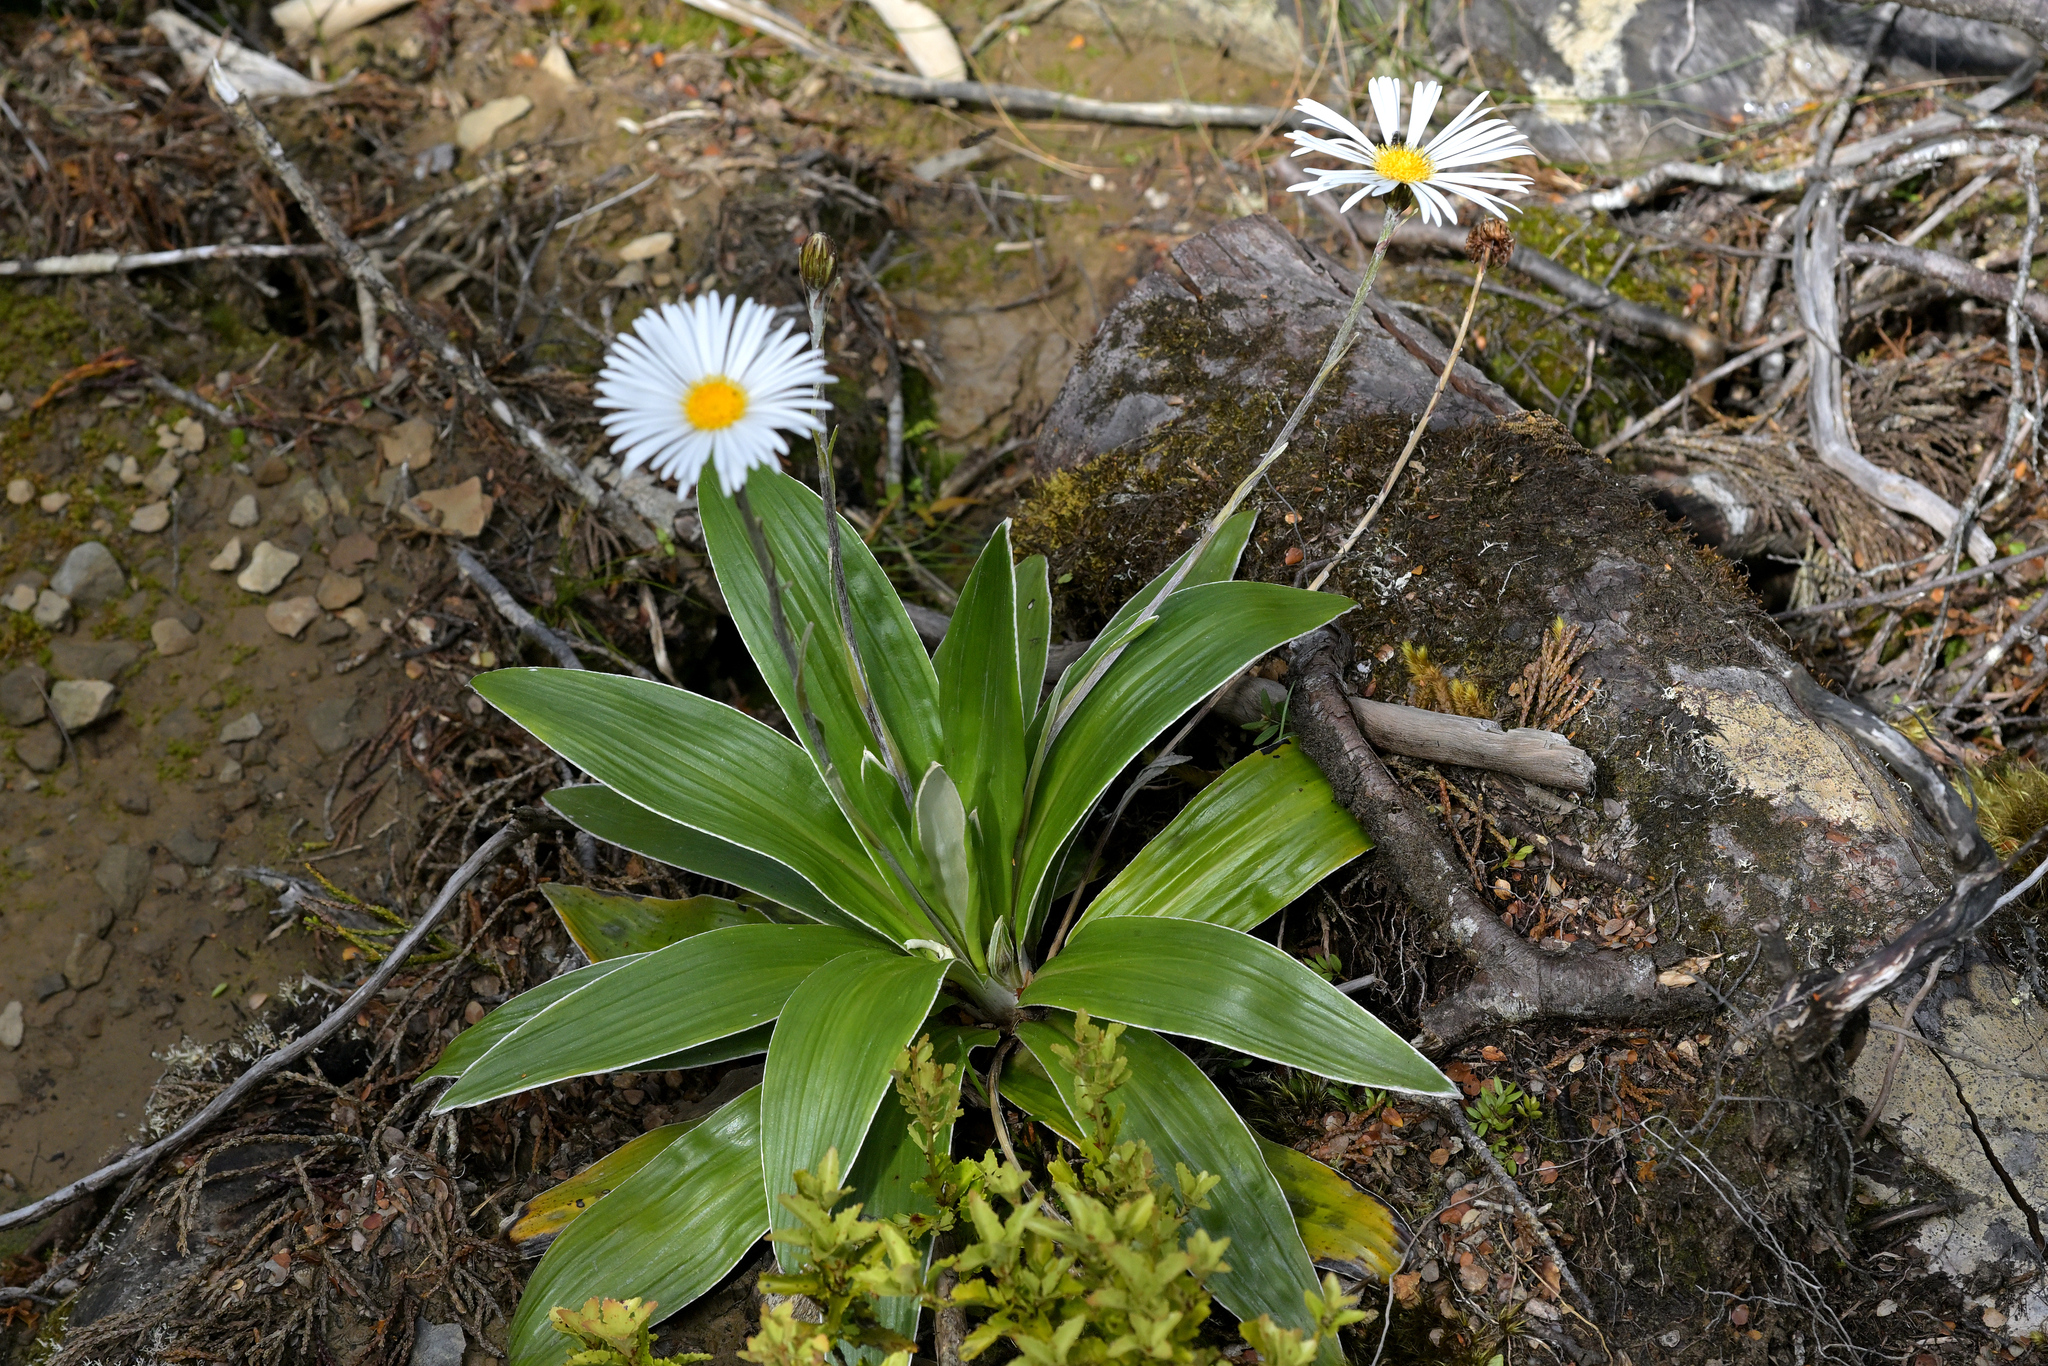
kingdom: Plantae
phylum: Tracheophyta
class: Magnoliopsida
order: Asterales
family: Asteraceae
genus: Celmisia
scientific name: Celmisia semicordata
